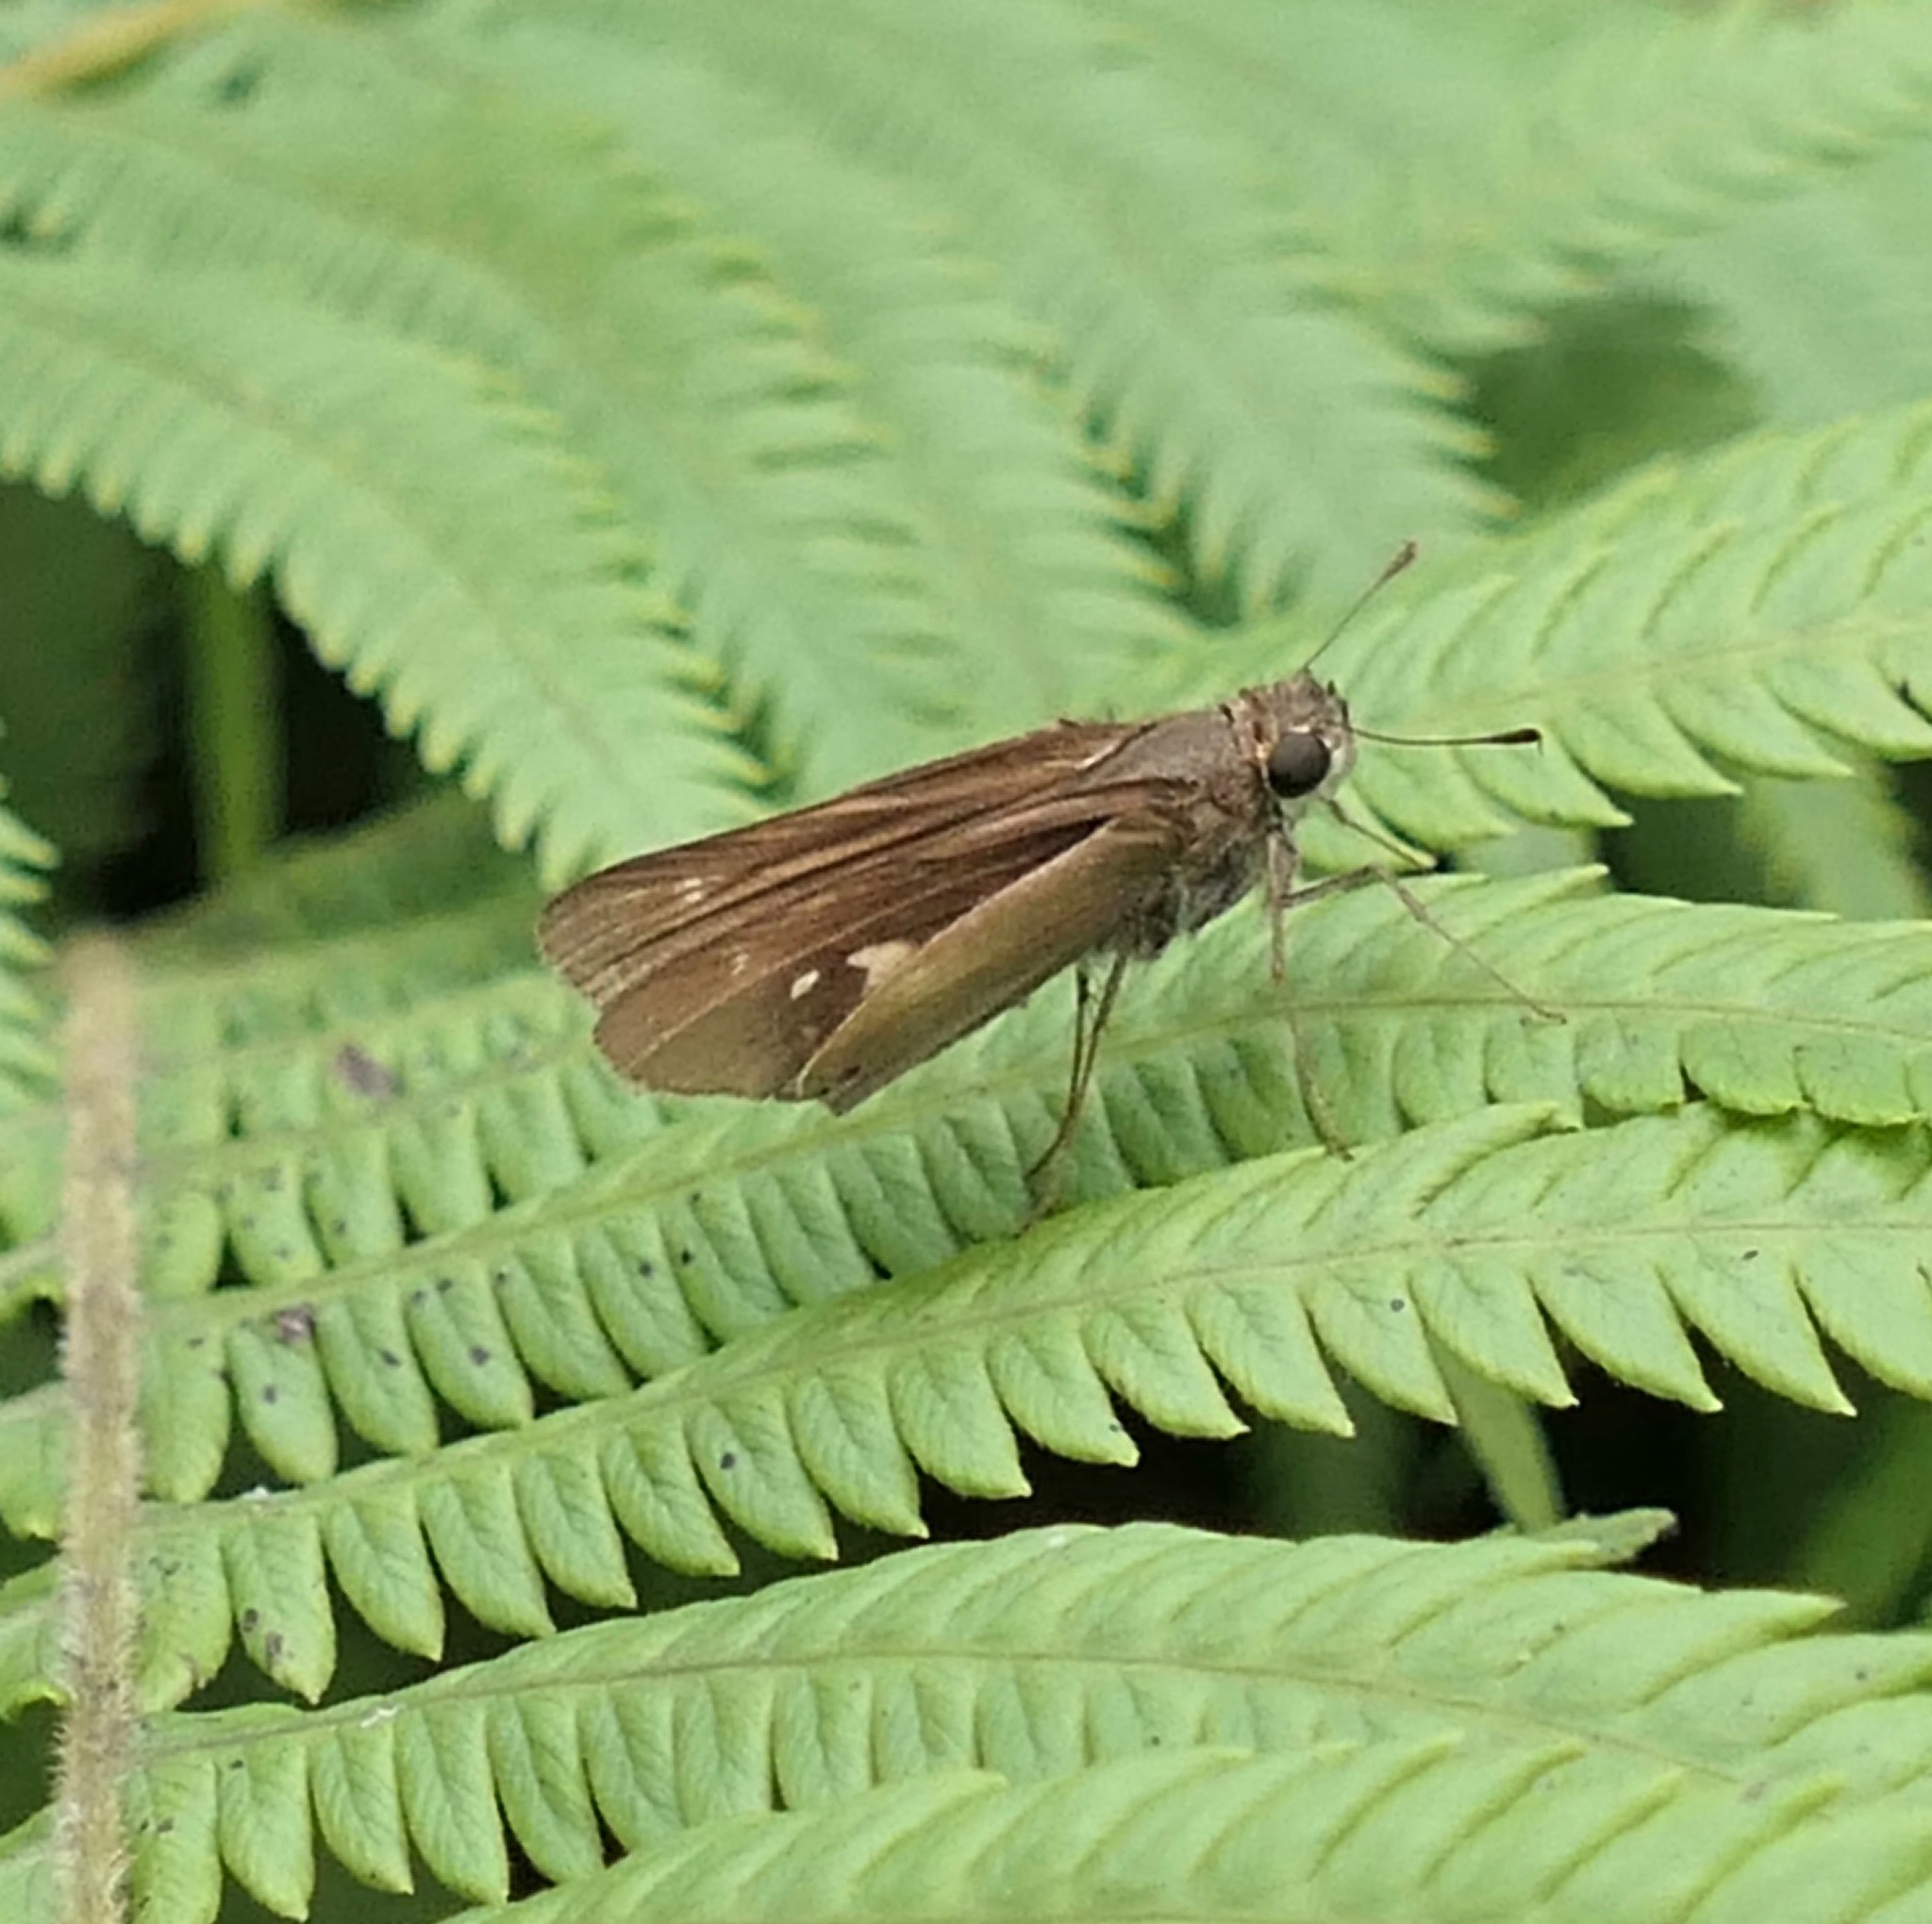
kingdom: Animalia
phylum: Arthropoda
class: Insecta
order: Lepidoptera
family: Hesperiidae
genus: Panoquina
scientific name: Panoquina ocola
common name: Ocola skipper
